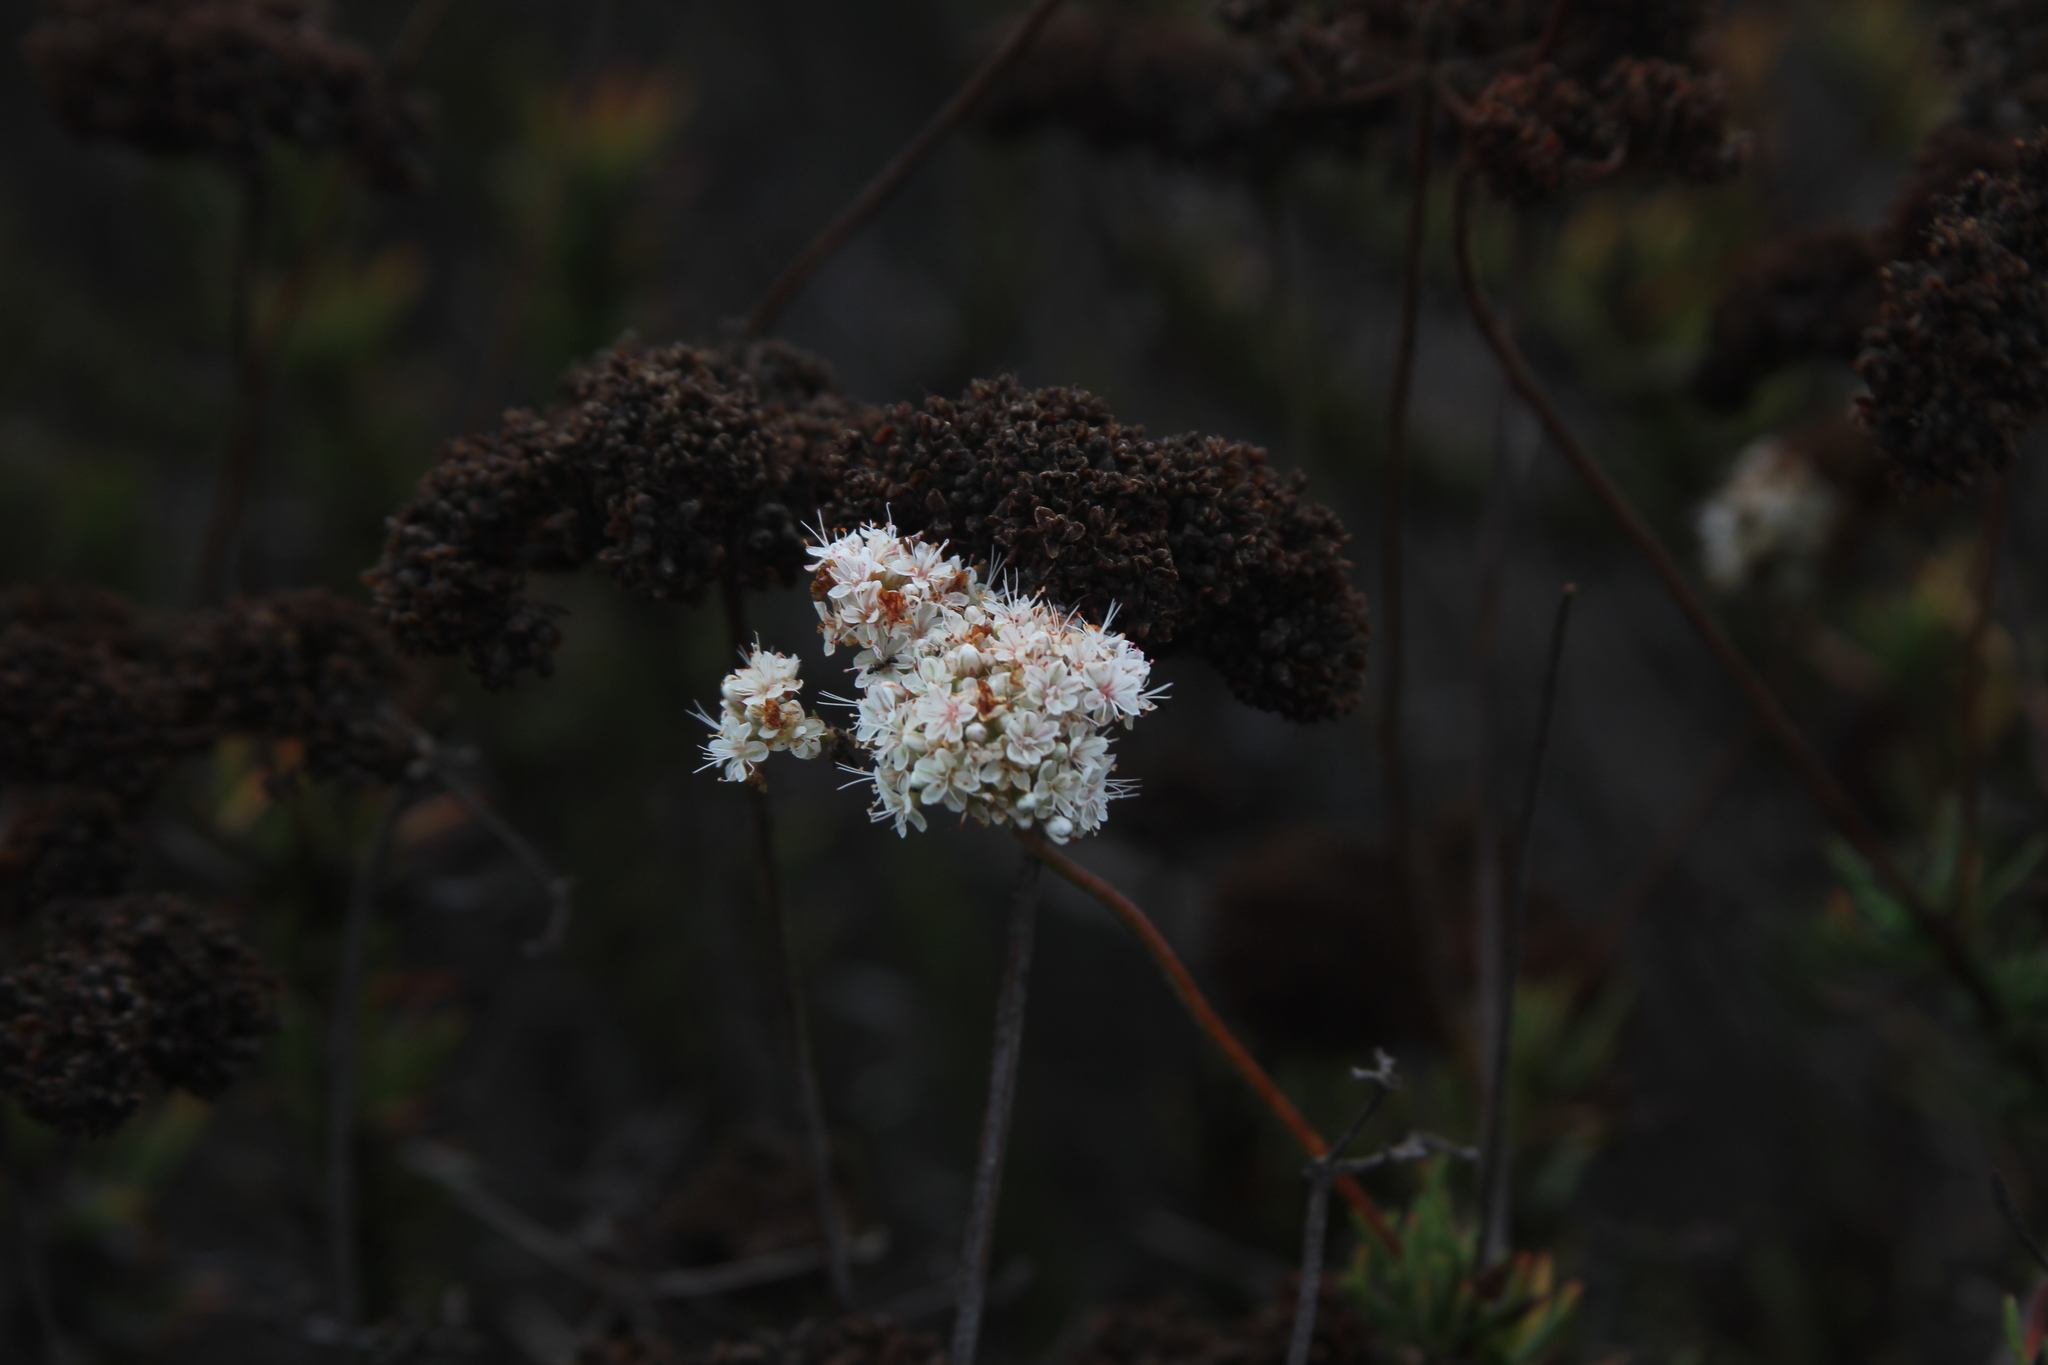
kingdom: Plantae
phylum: Tracheophyta
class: Magnoliopsida
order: Caryophyllales
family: Polygonaceae
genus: Eriogonum
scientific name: Eriogonum fasciculatum
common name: California wild buckwheat
